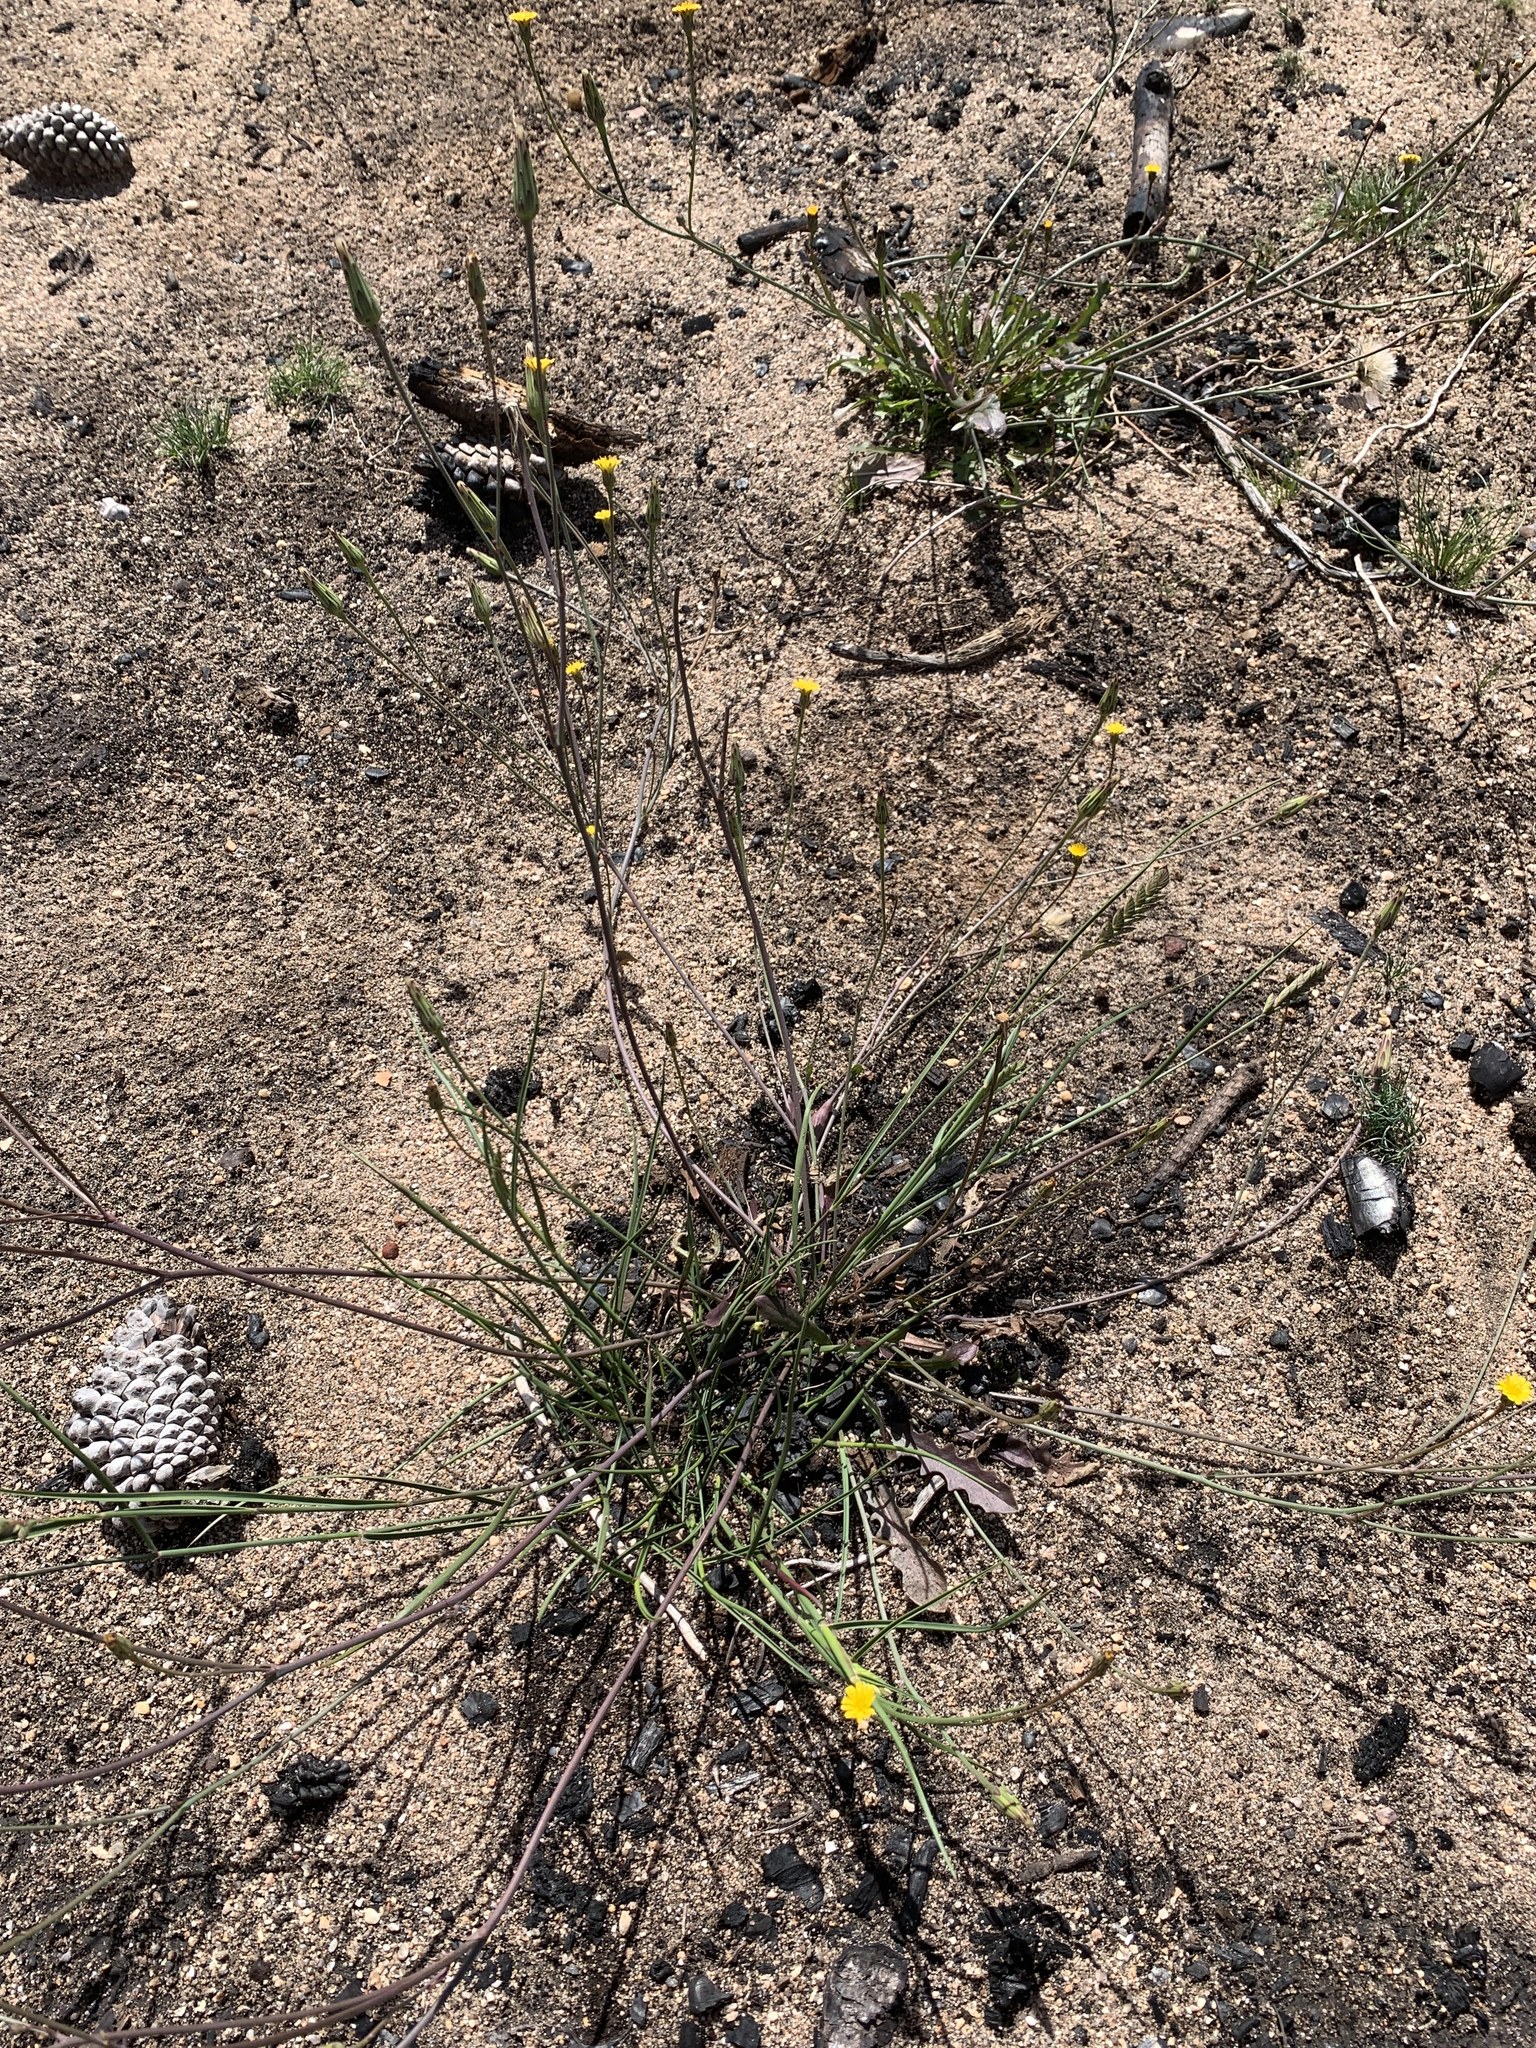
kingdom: Plantae
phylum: Tracheophyta
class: Magnoliopsida
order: Asterales
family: Asteraceae
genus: Hypochaeris
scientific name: Hypochaeris glabra
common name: Smooth catsear
